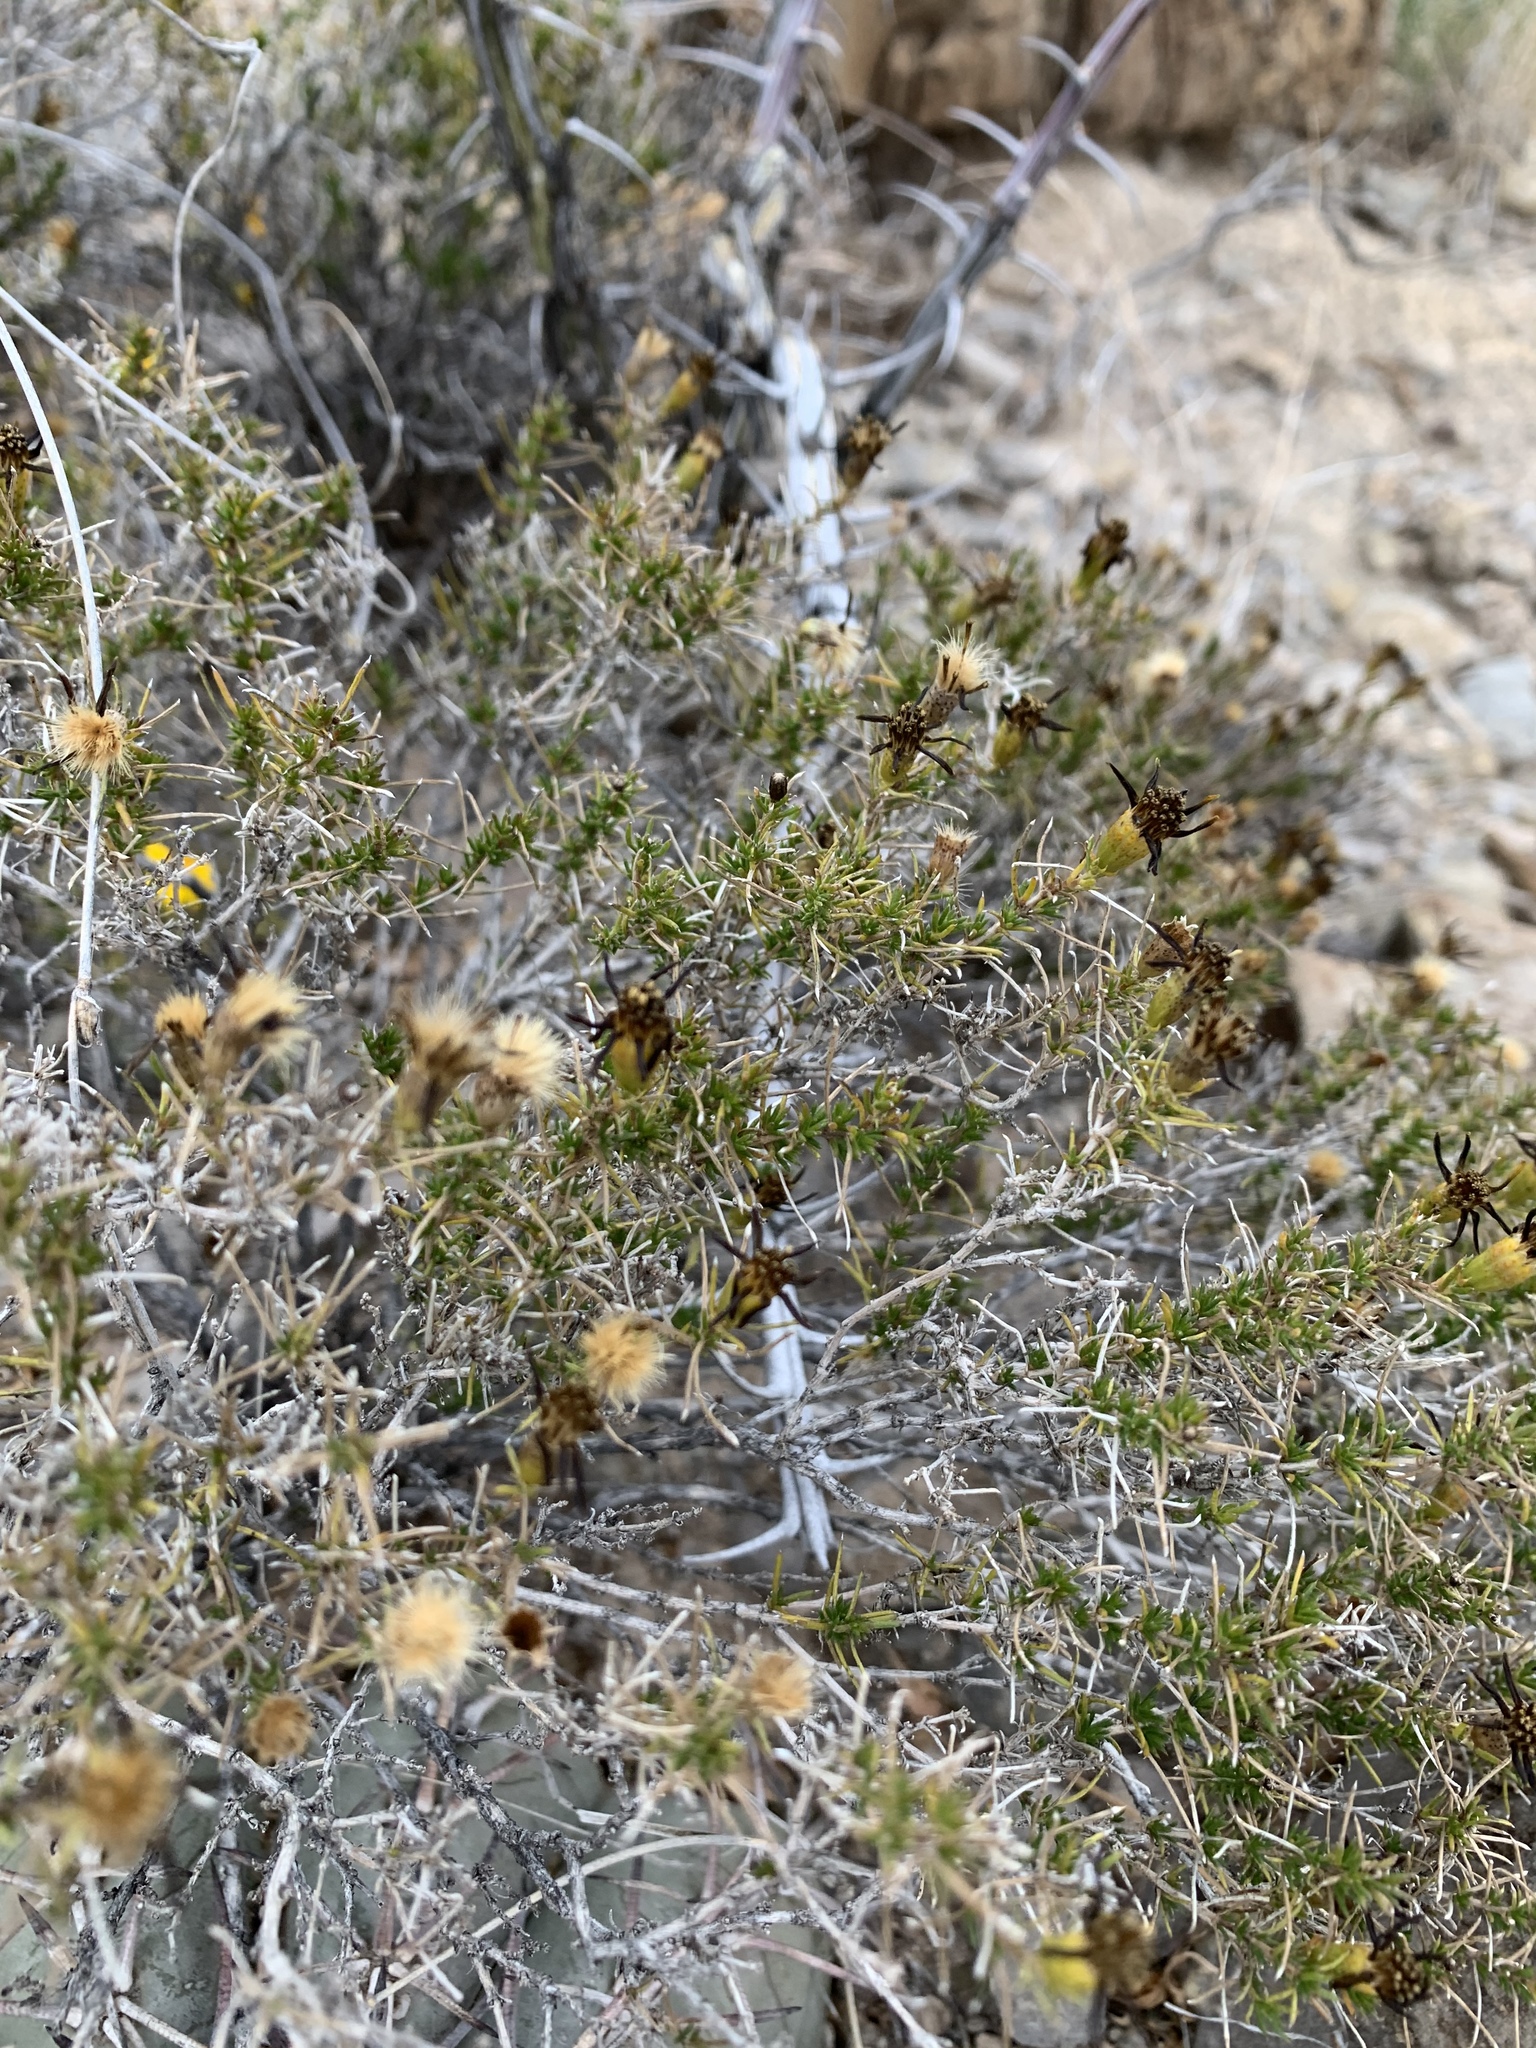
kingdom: Plantae
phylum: Tracheophyta
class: Magnoliopsida
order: Asterales
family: Asteraceae
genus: Thymophylla
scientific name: Thymophylla acerosa
